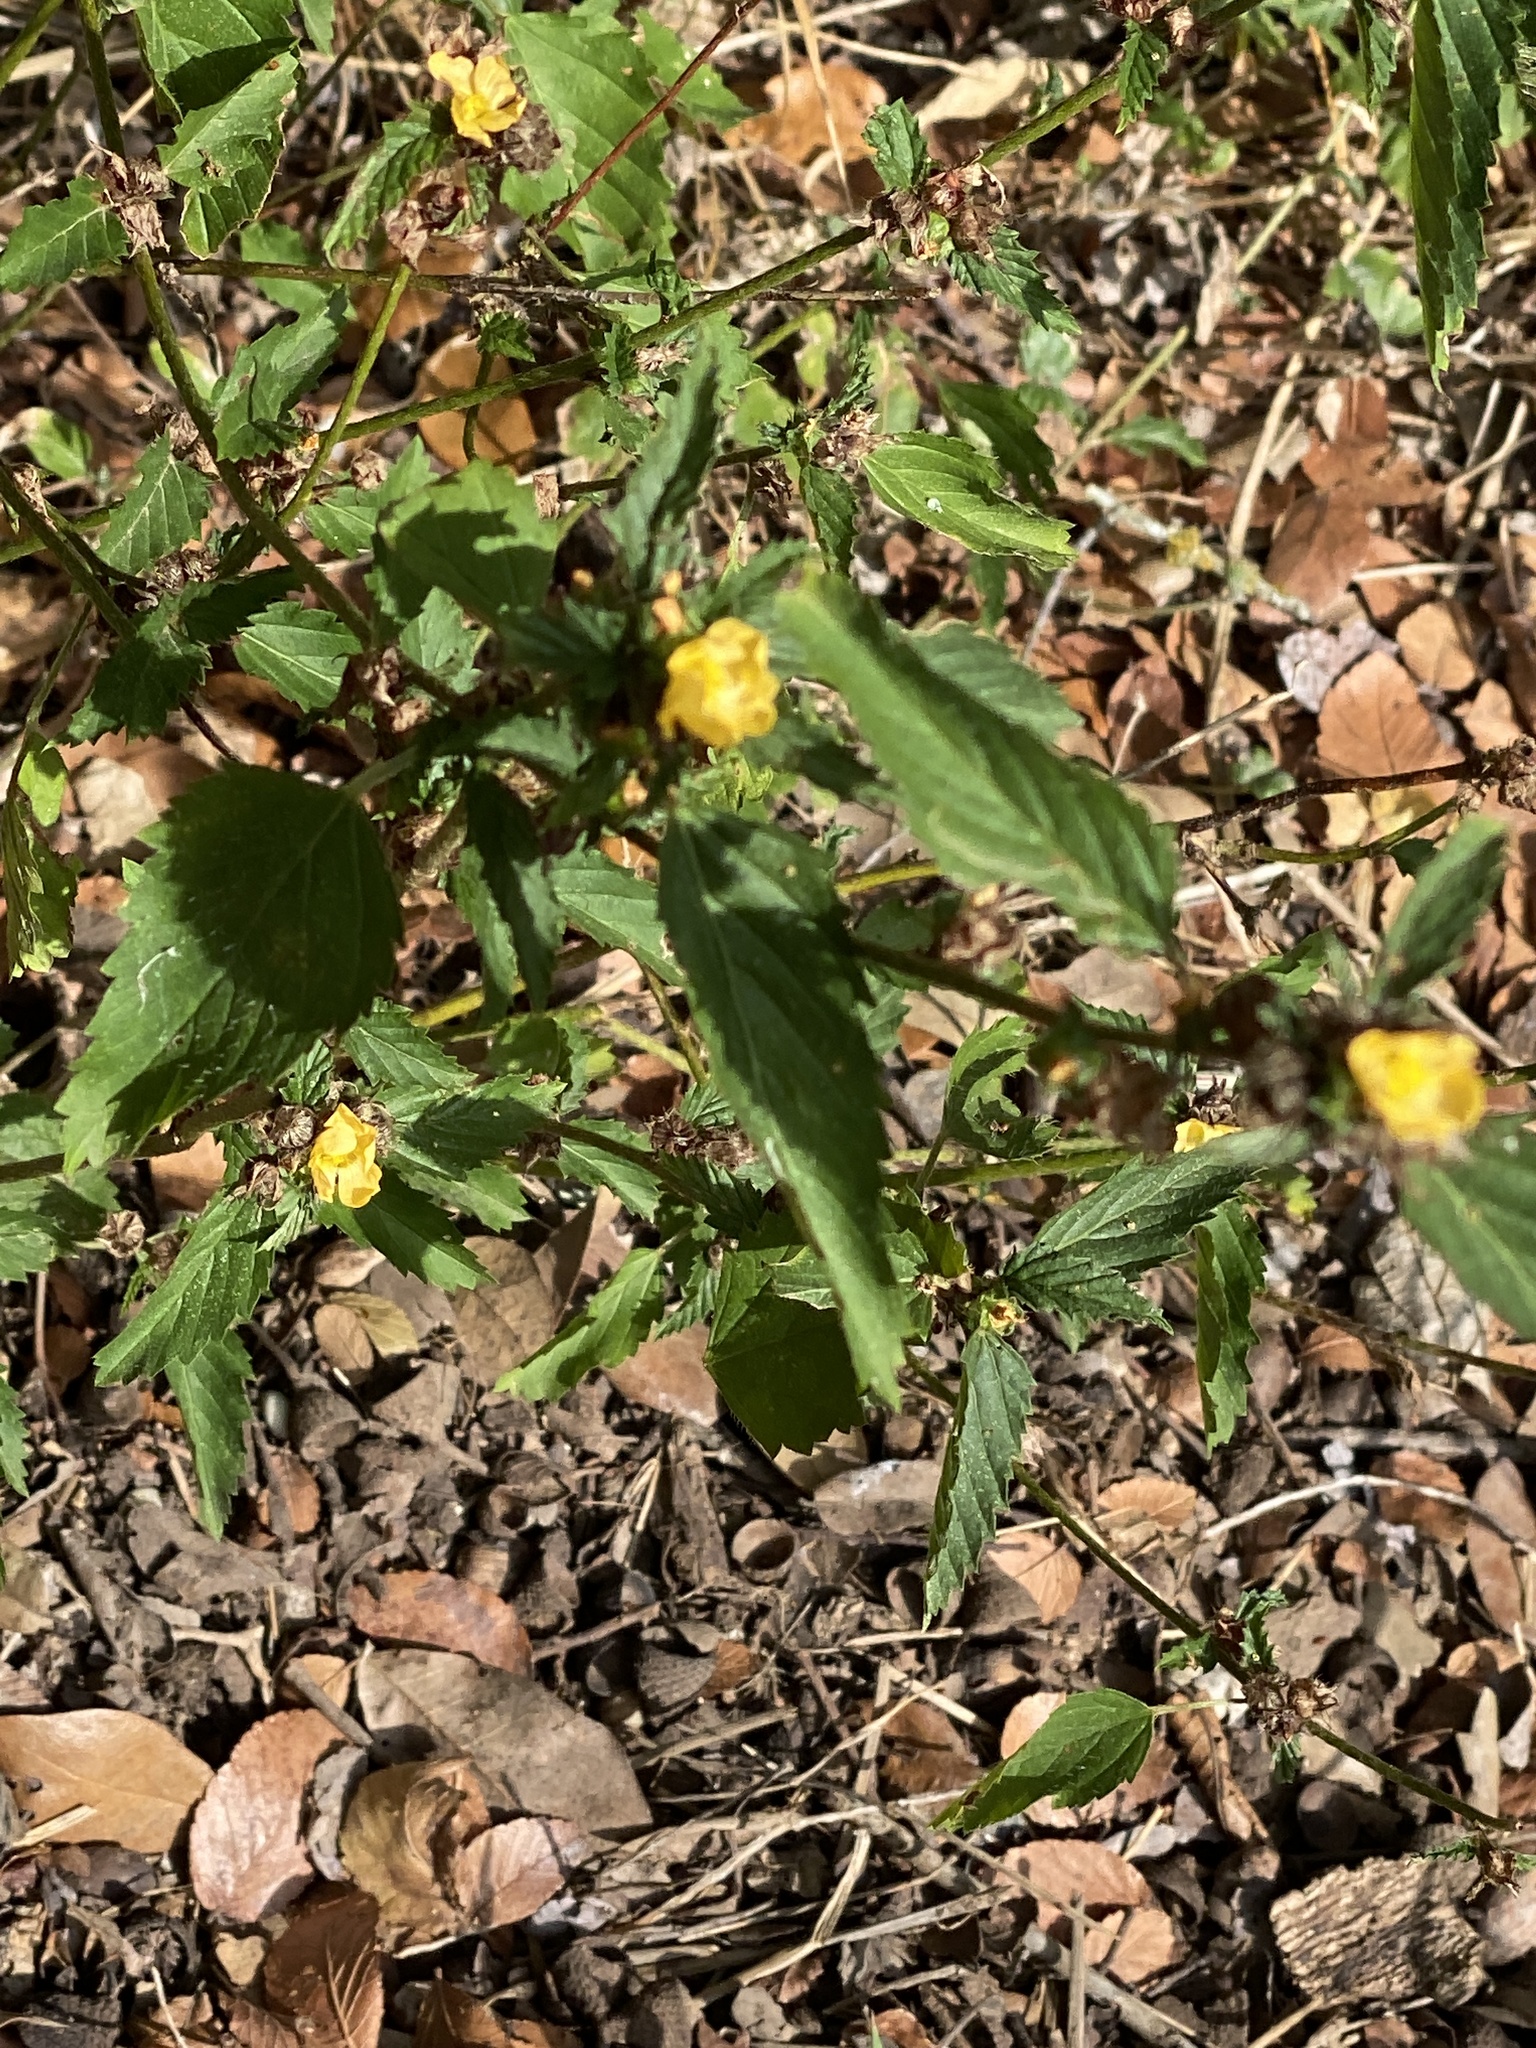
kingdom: Plantae
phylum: Tracheophyta
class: Magnoliopsida
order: Malvales
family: Malvaceae
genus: Malvastrum
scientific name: Malvastrum coromandelianum
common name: Threelobe false mallow
